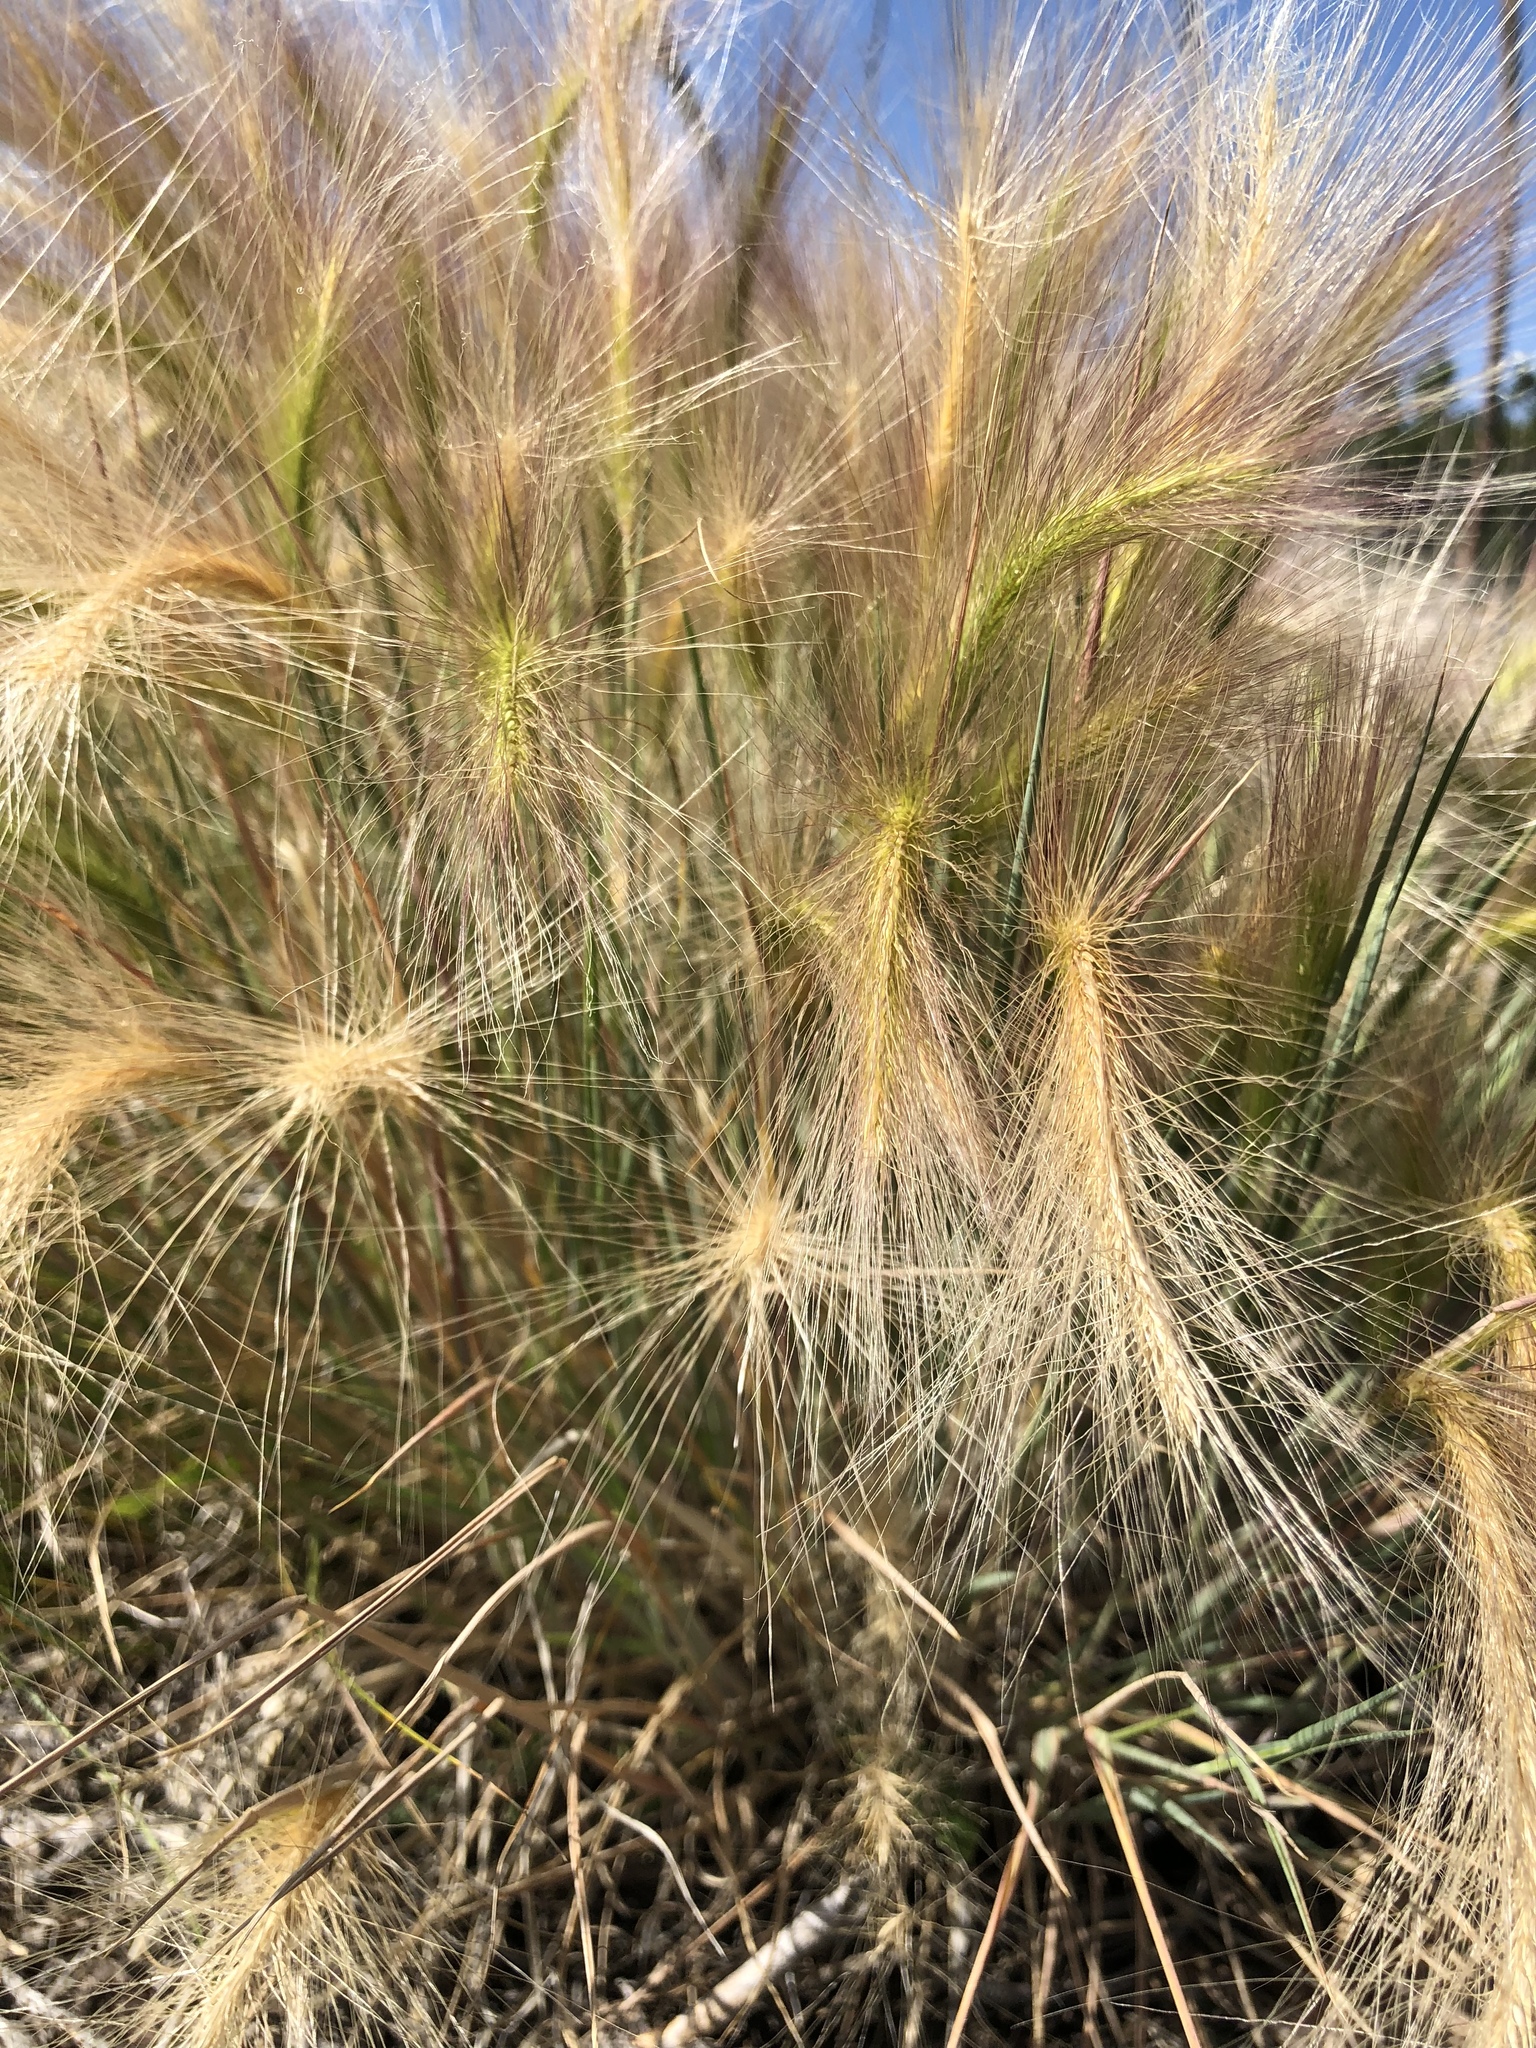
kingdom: Plantae
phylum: Tracheophyta
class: Liliopsida
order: Poales
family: Poaceae
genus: Hordeum
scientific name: Hordeum jubatum
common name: Foxtail barley
